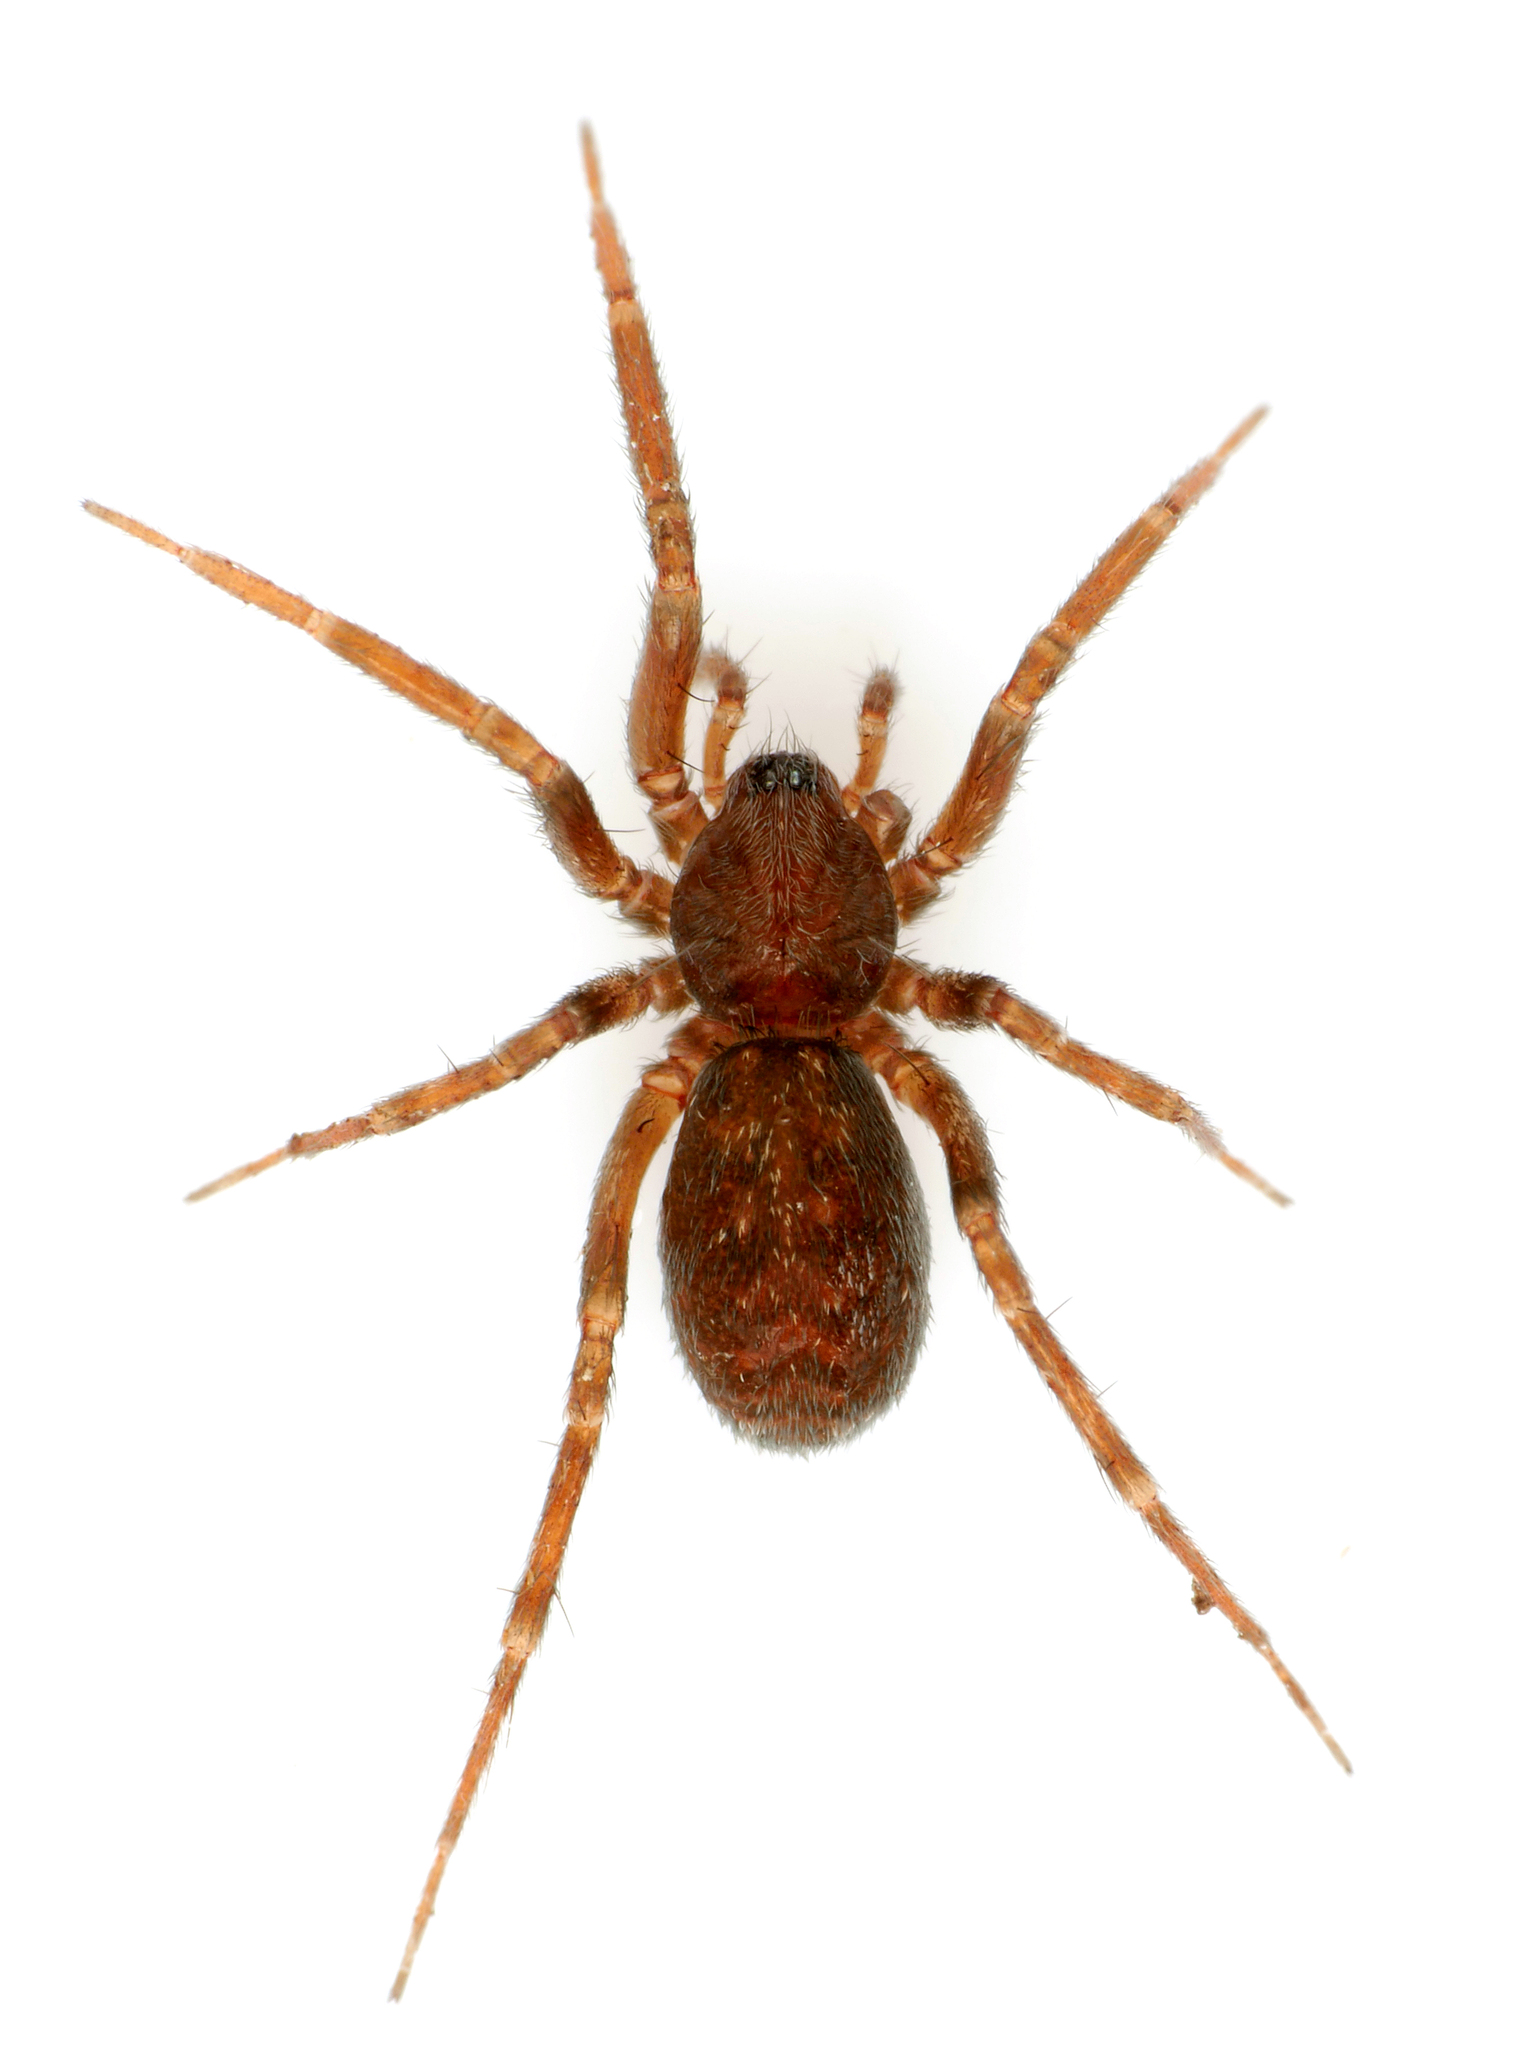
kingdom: Animalia
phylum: Arthropoda
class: Arachnida
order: Araneae
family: Liocranidae
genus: Apostenus
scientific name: Apostenus fuscus
